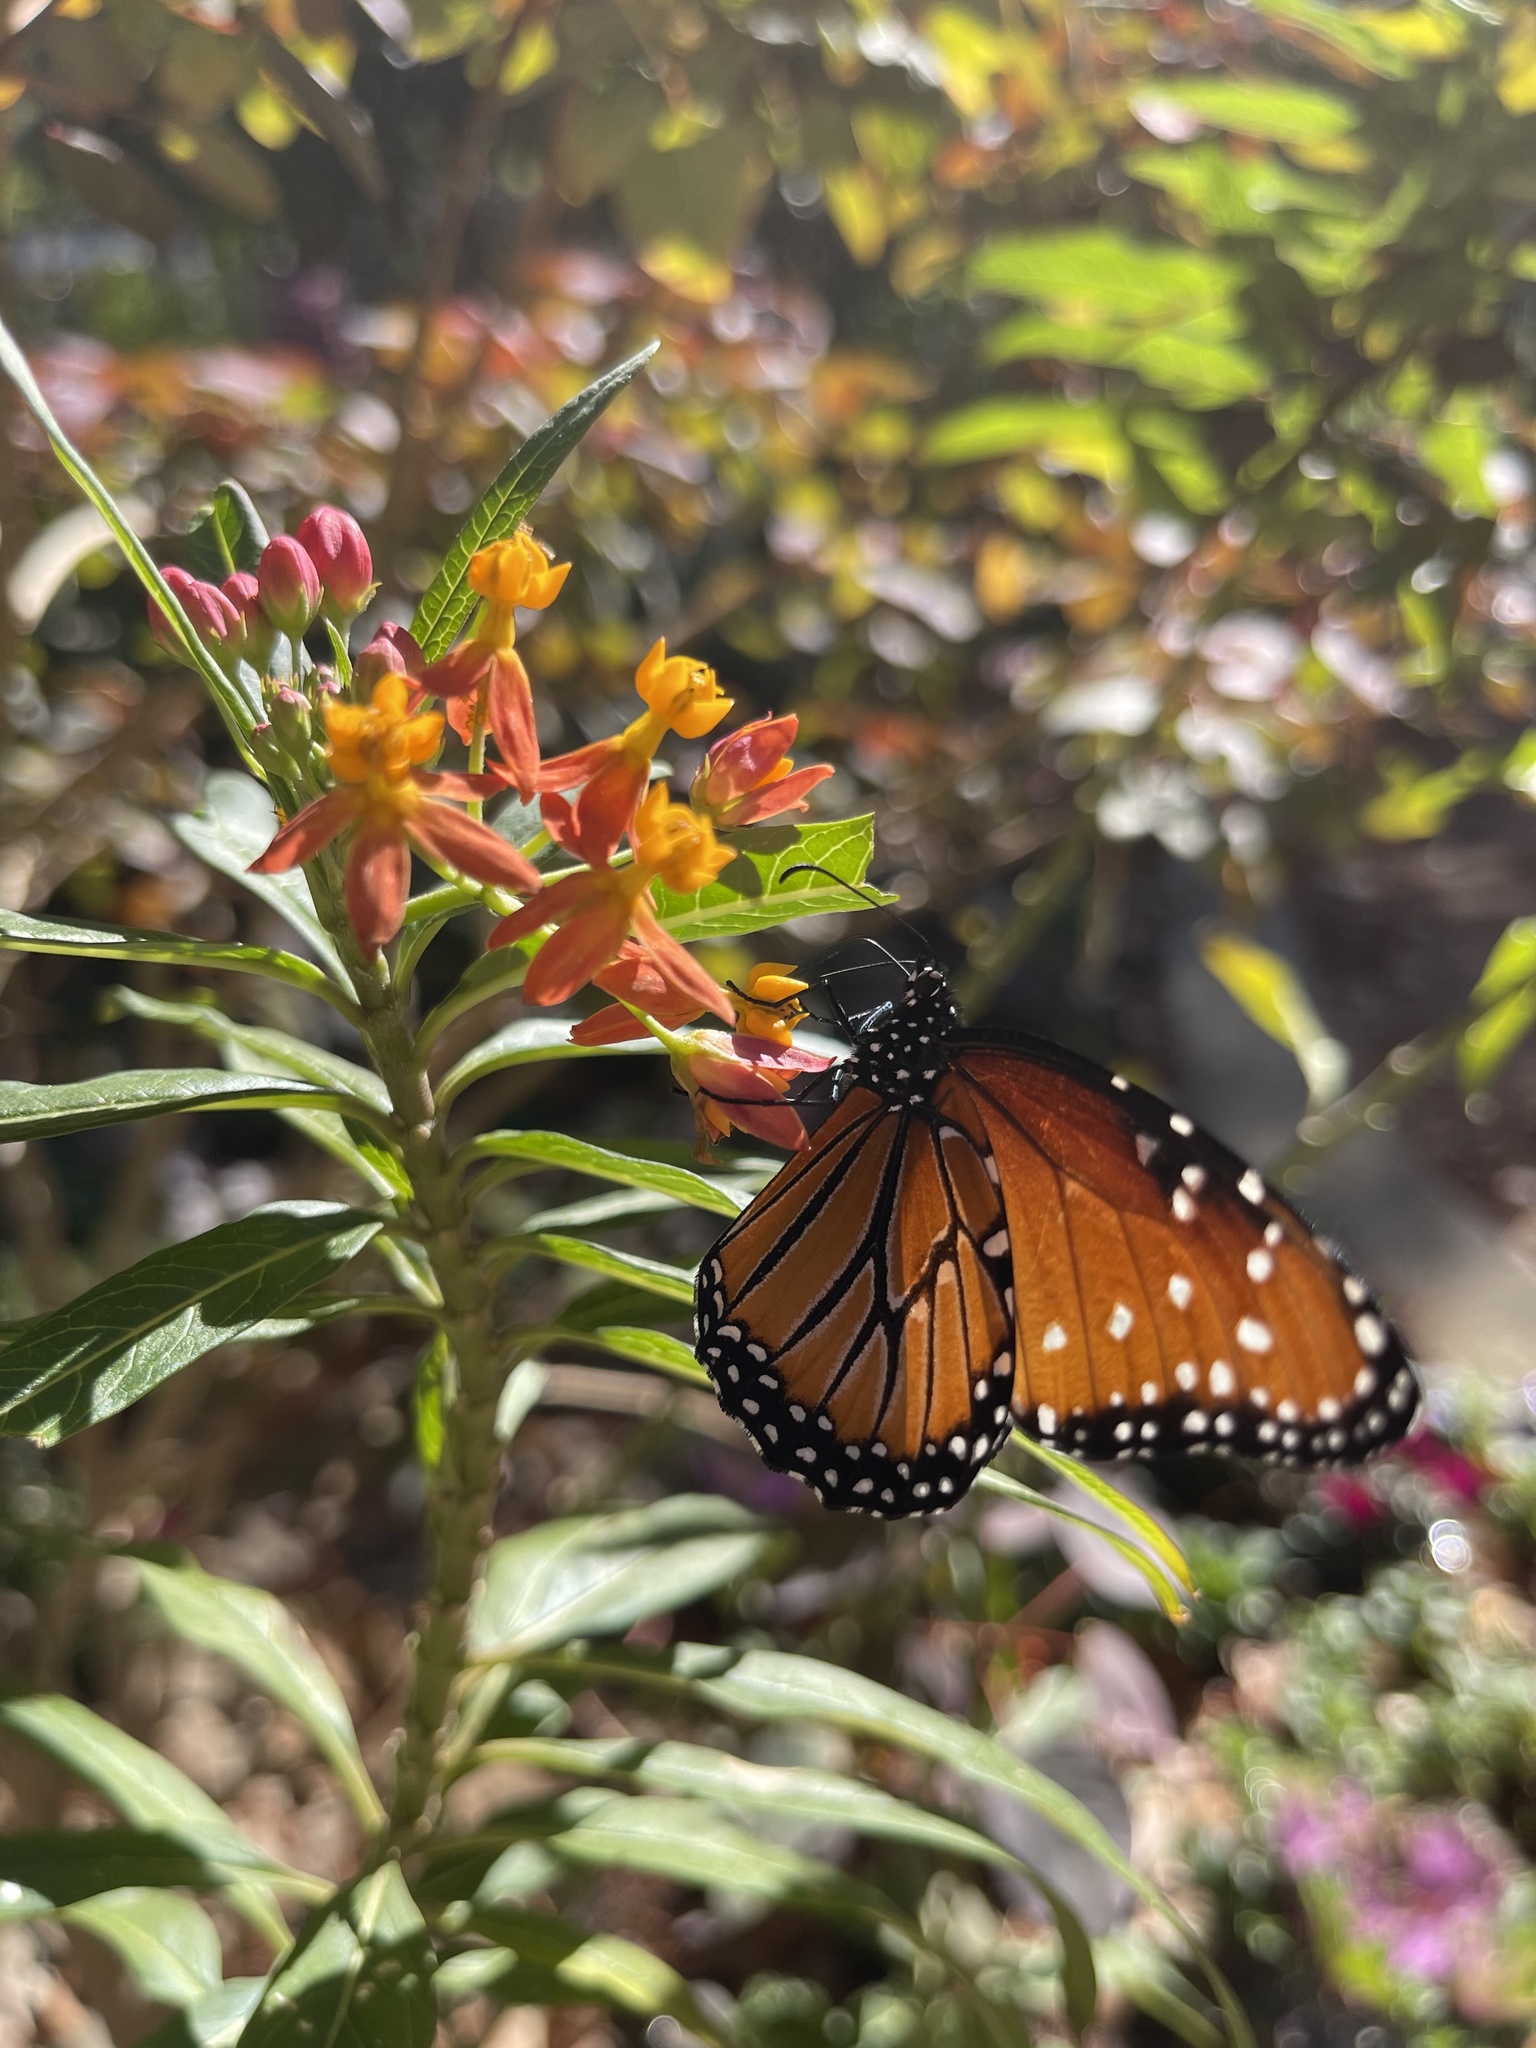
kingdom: Animalia
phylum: Arthropoda
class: Insecta
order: Lepidoptera
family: Nymphalidae
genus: Danaus
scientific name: Danaus gilippus
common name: Queen
